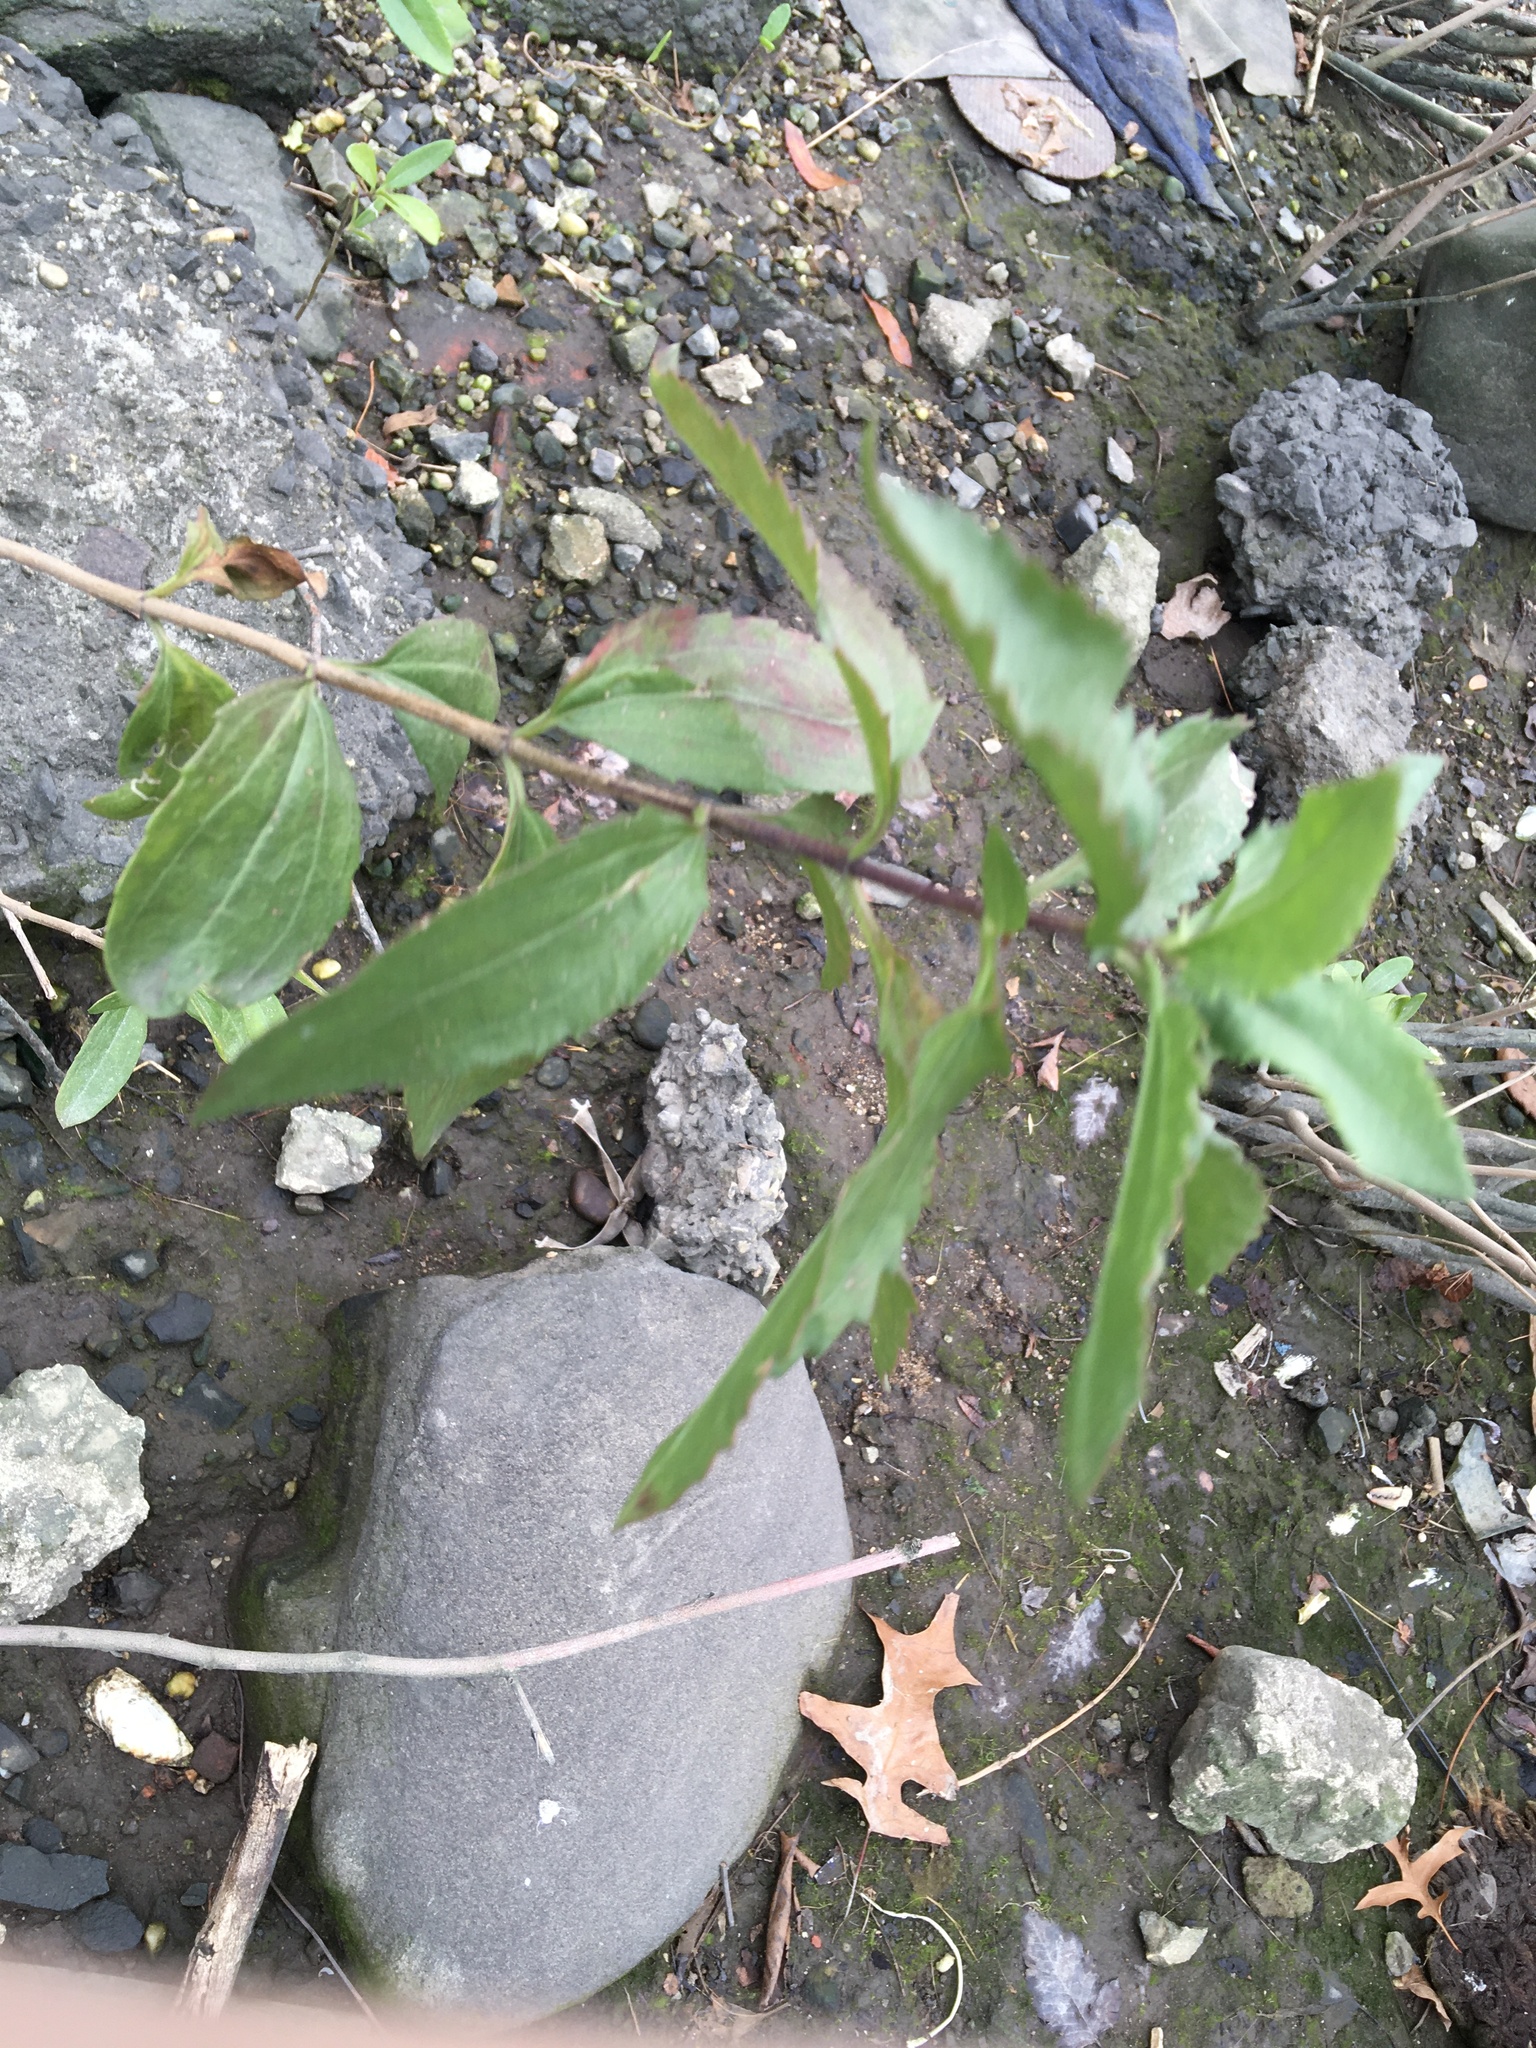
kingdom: Plantae
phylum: Tracheophyta
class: Magnoliopsida
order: Asterales
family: Asteraceae
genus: Iva
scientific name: Iva frutescens
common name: Big-leaved marsh-elder
